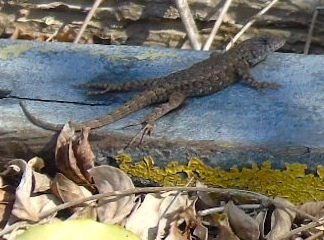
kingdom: Animalia
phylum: Chordata
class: Squamata
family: Phrynosomatidae
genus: Sceloporus
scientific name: Sceloporus nelsoni
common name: Nelson's spiny lizard
